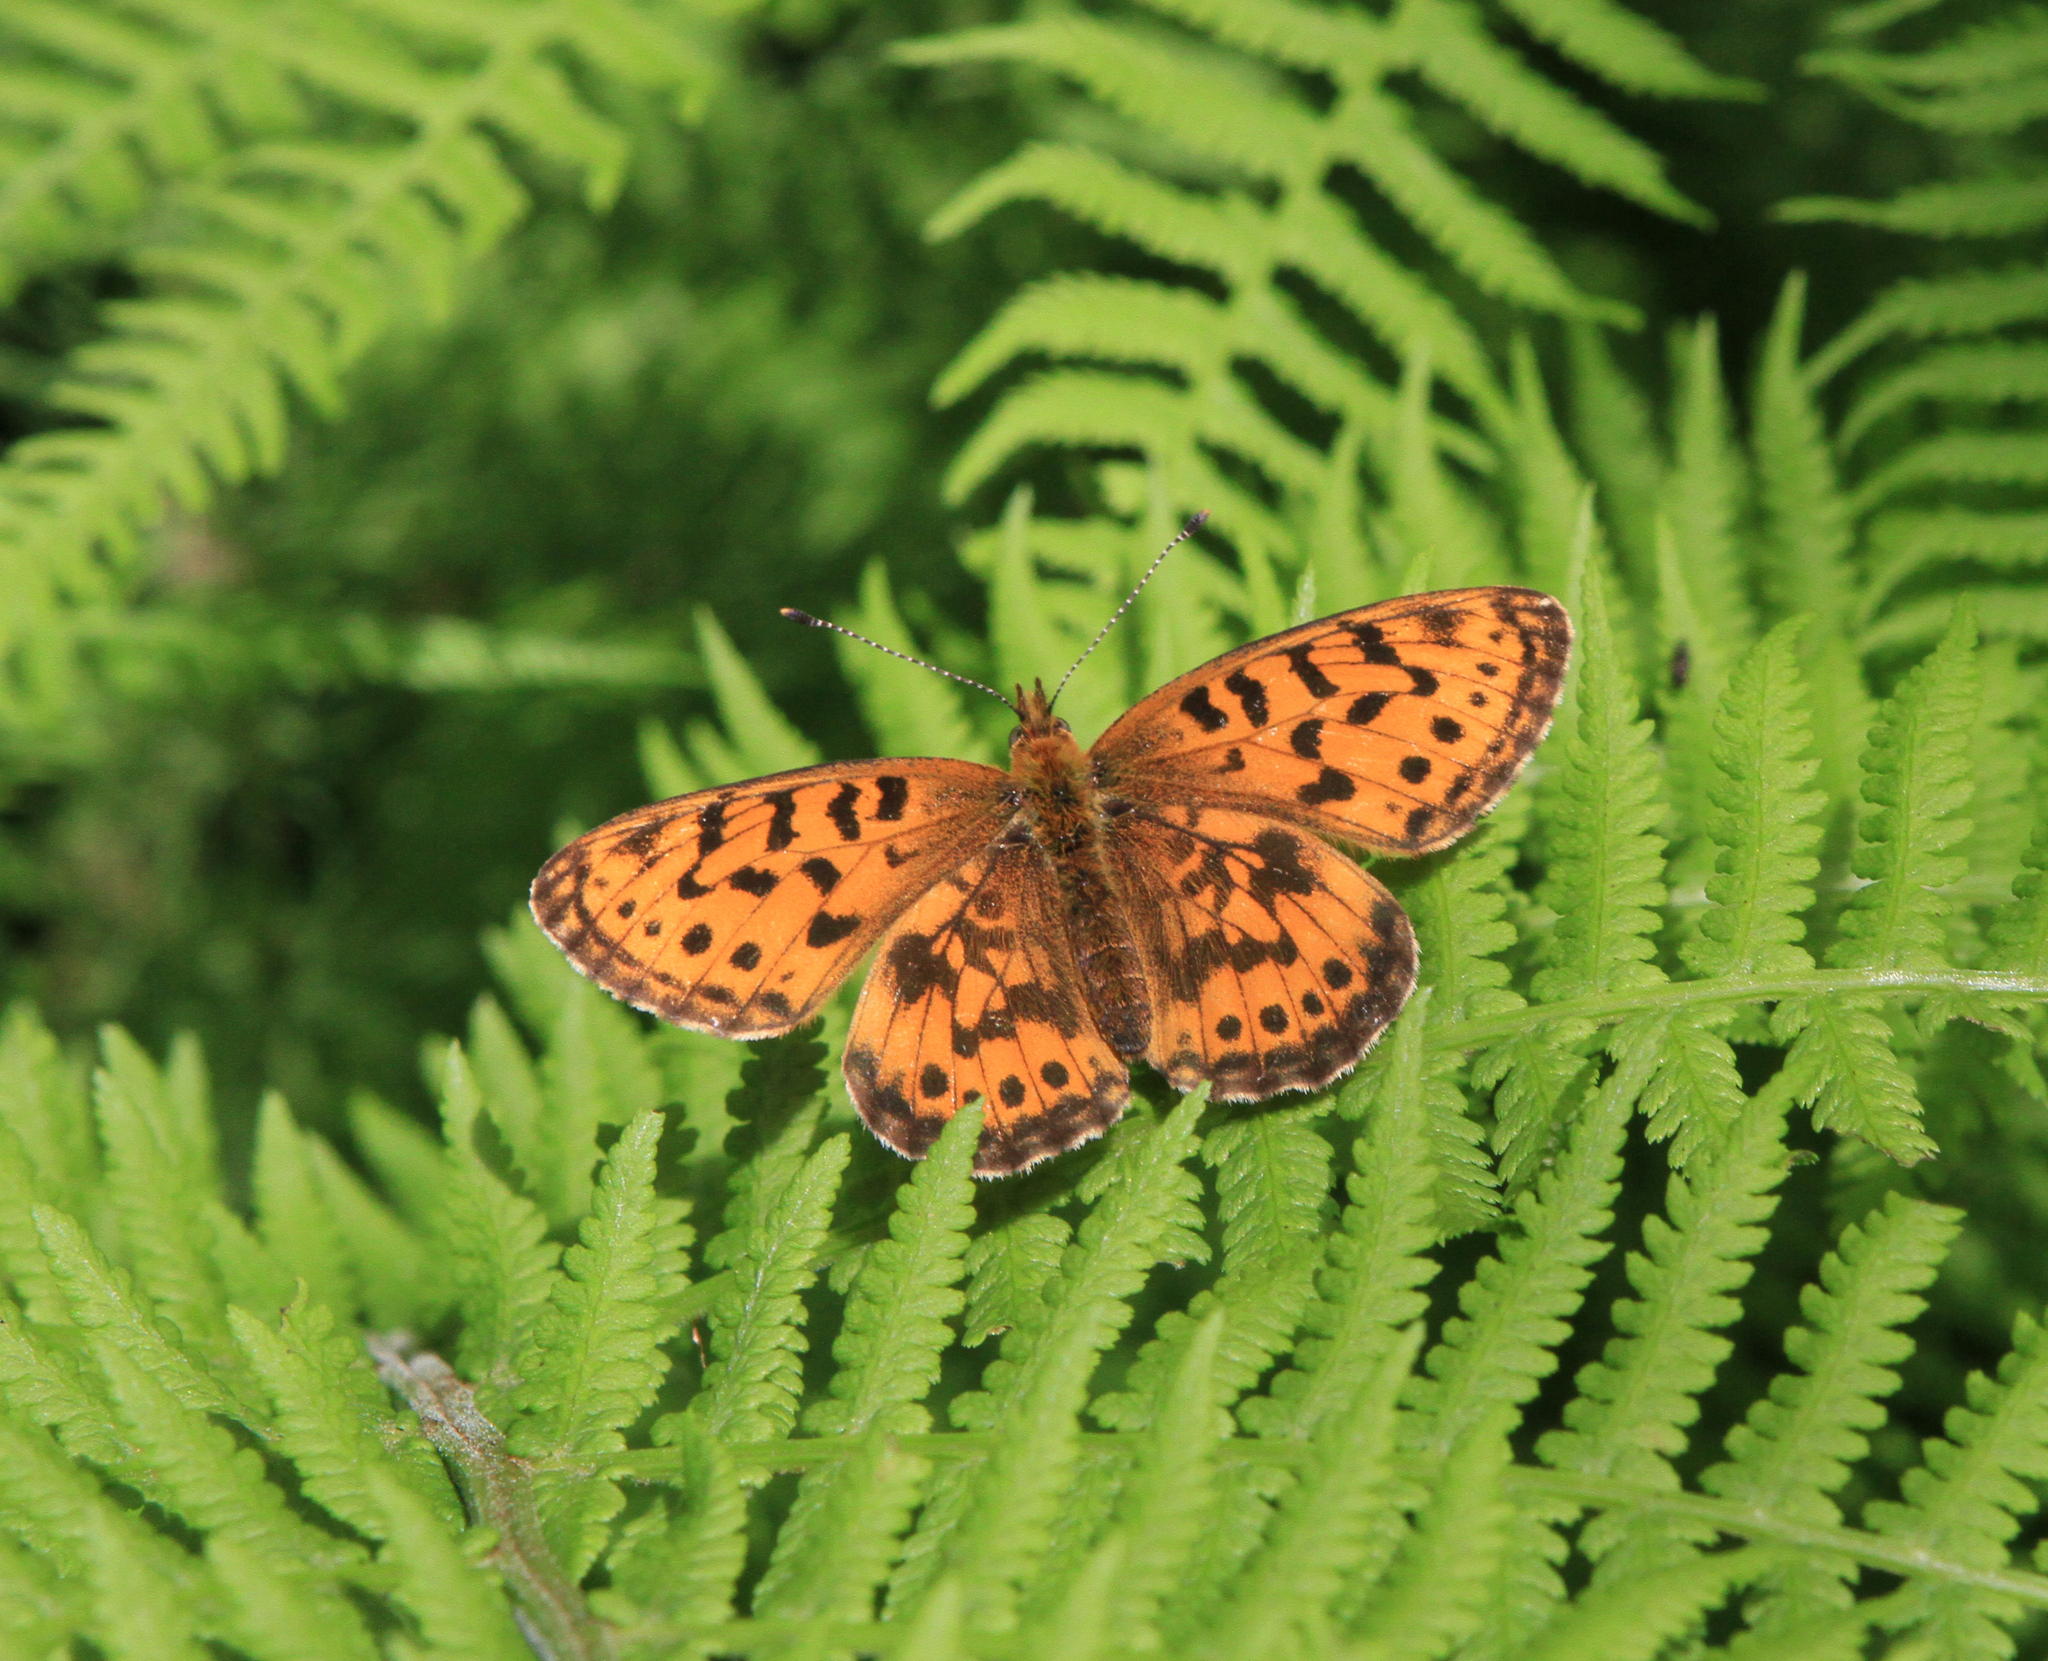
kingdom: Animalia
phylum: Arthropoda
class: Insecta
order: Lepidoptera
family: Nymphalidae
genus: Boloria
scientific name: Boloria thore
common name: Thor's fritillary
